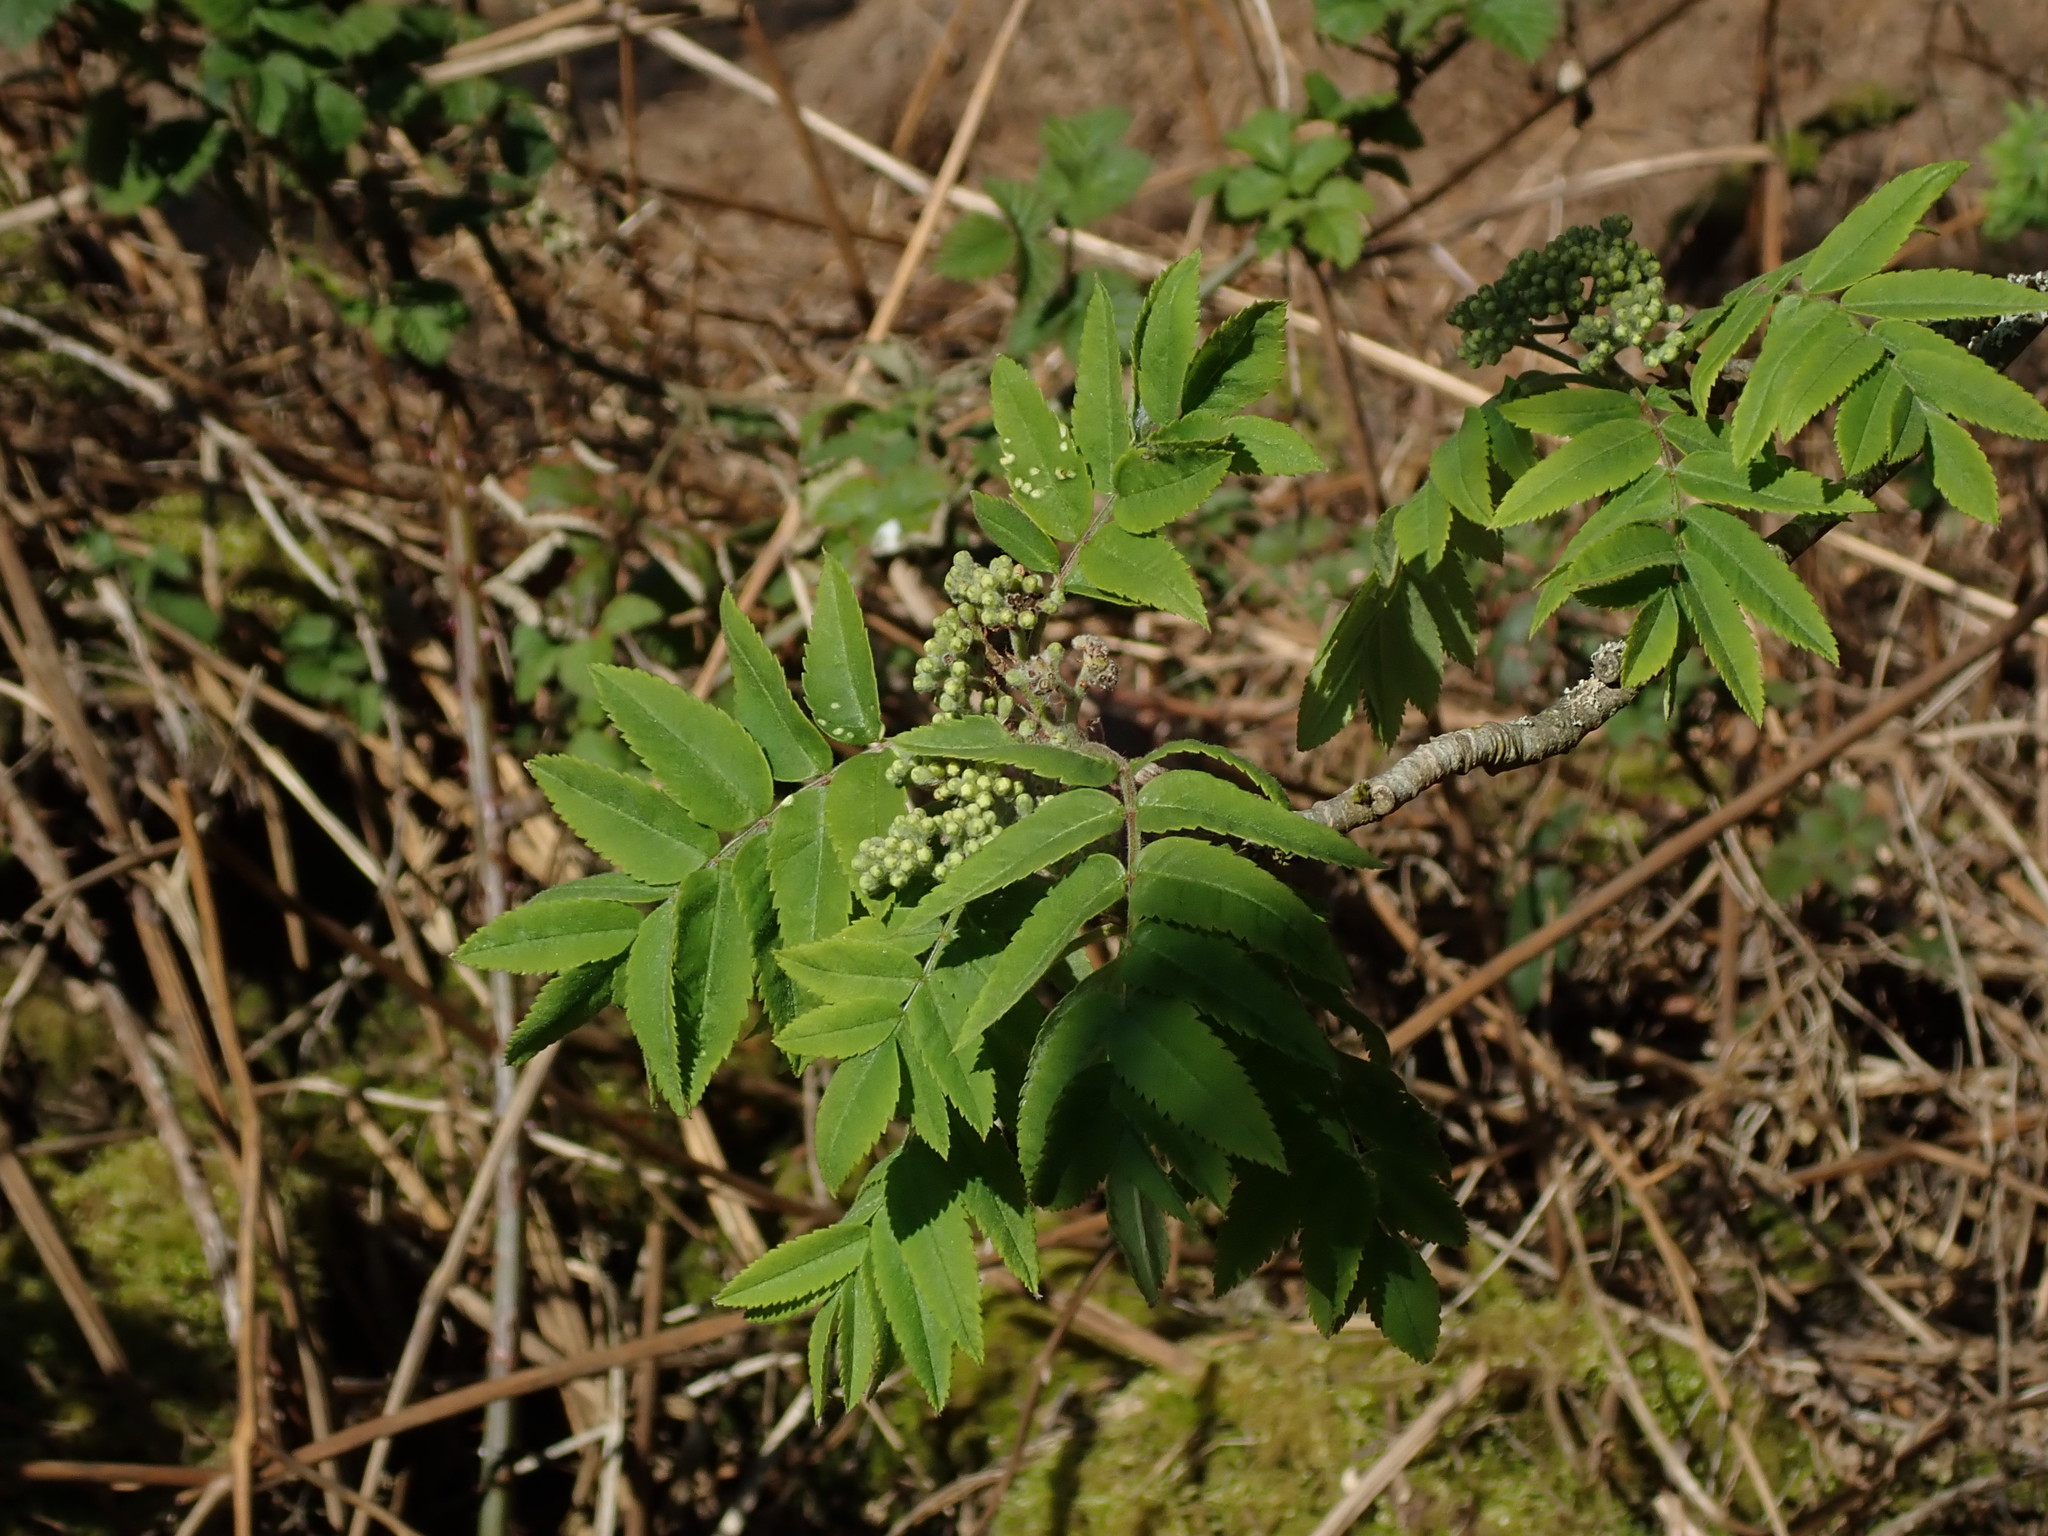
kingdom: Plantae
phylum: Tracheophyta
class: Magnoliopsida
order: Rosales
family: Rosaceae
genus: Sorbus
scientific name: Sorbus aucuparia
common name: Rowan
